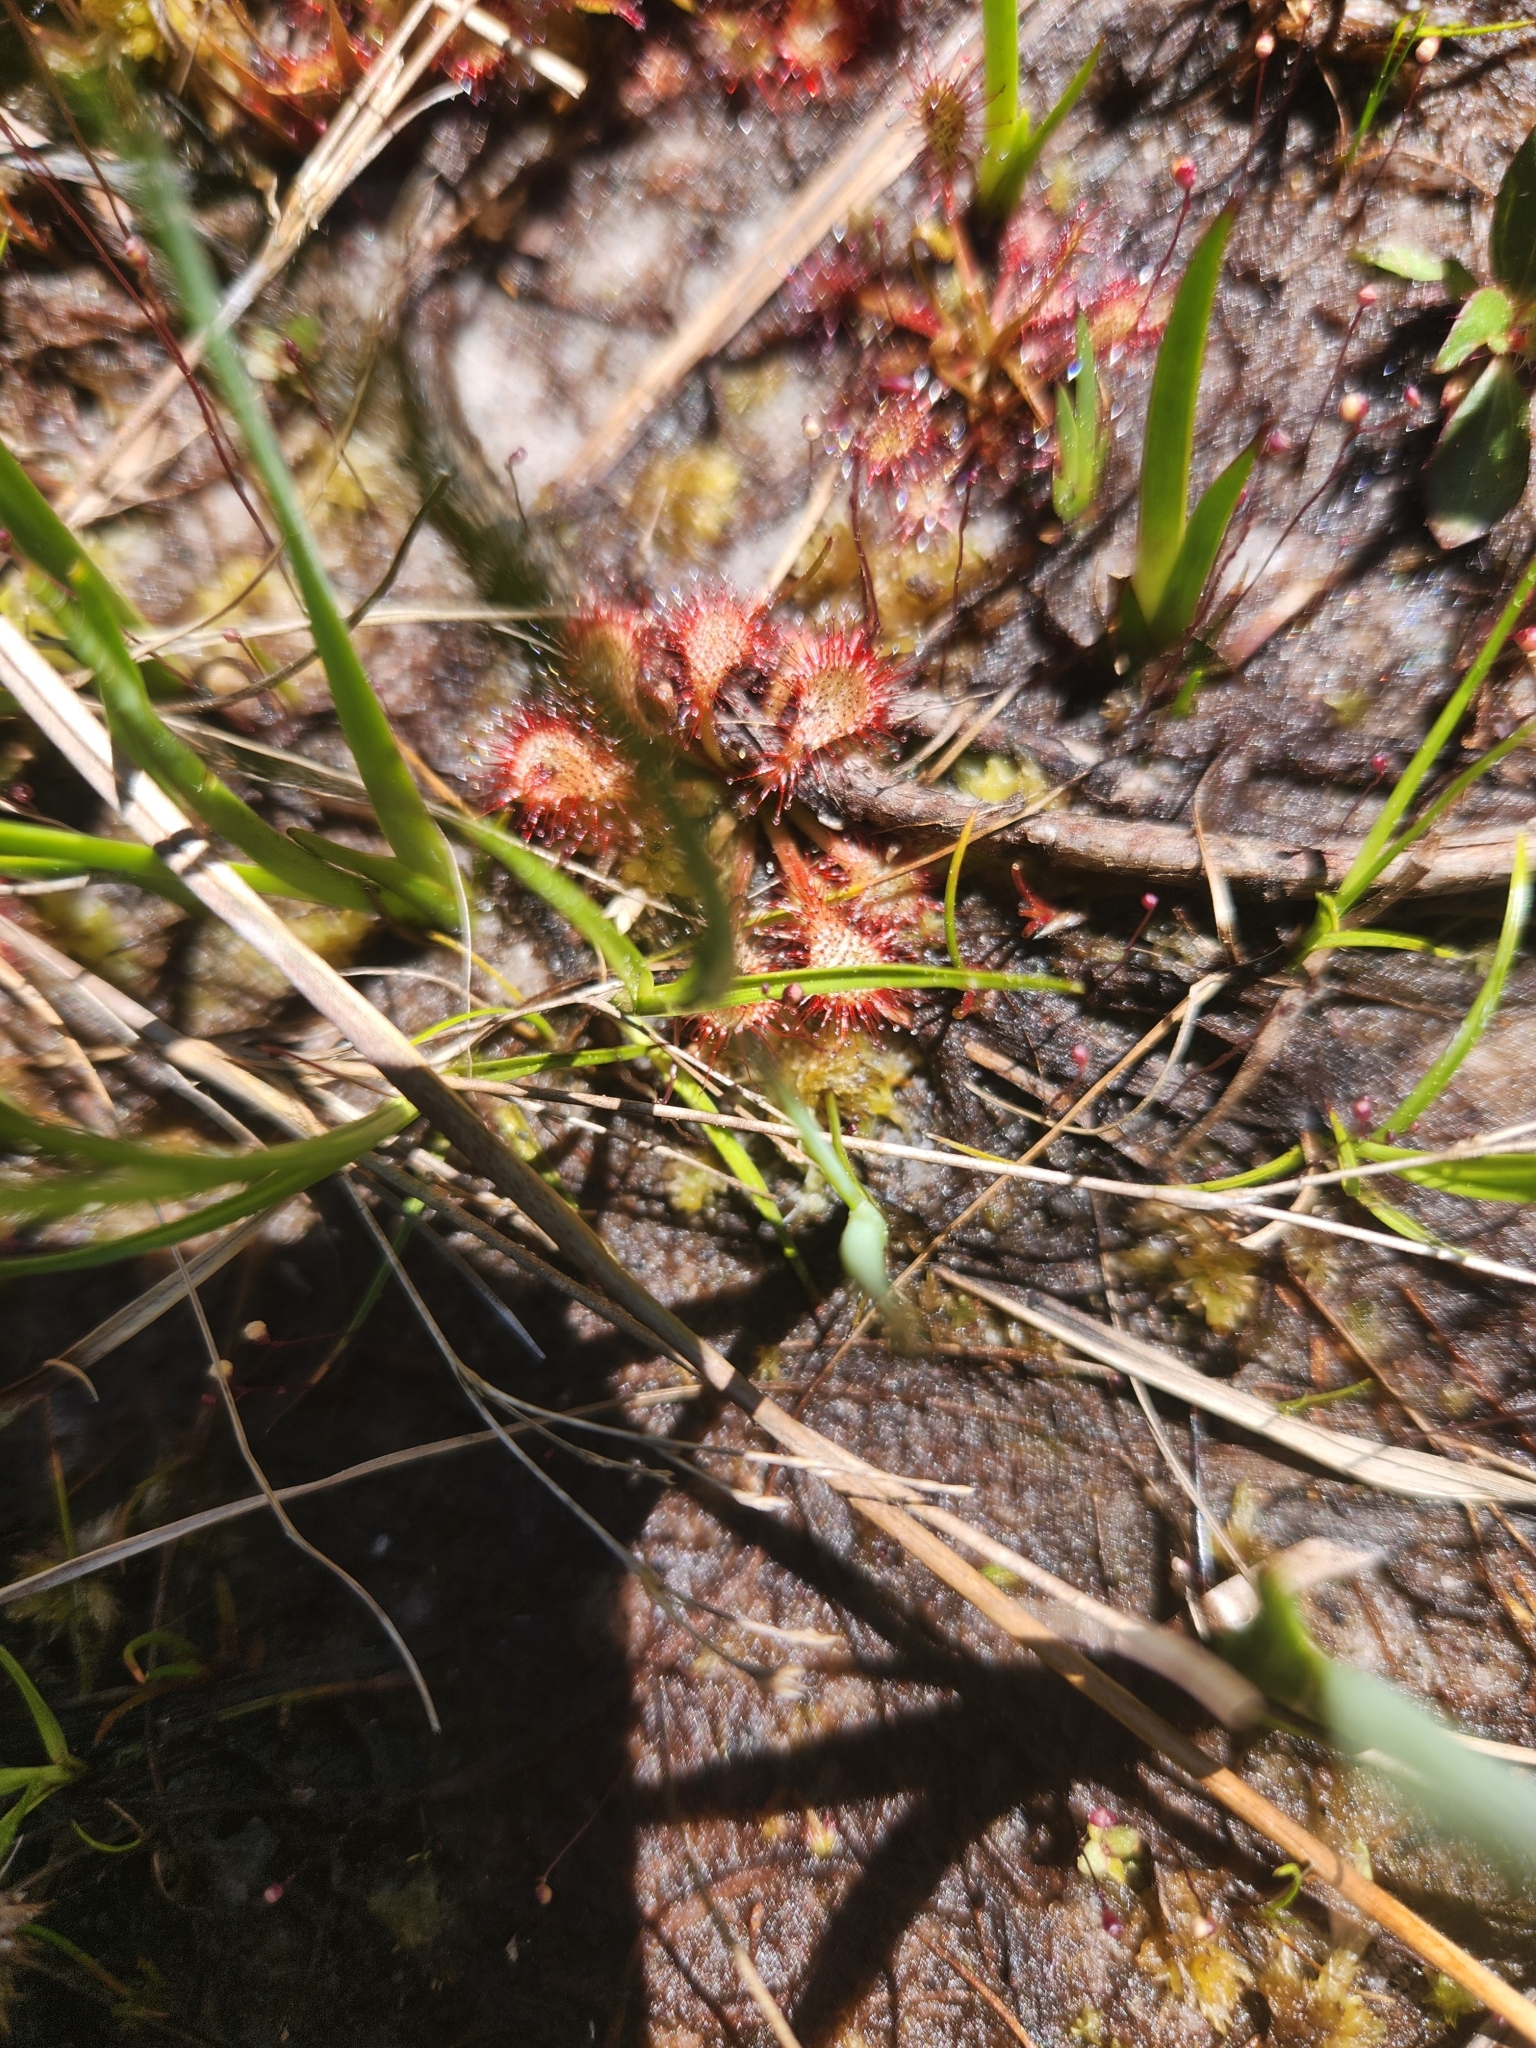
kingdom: Plantae
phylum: Tracheophyta
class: Magnoliopsida
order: Caryophyllales
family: Droseraceae
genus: Drosera
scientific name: Drosera capillaris
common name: Pink sundew
